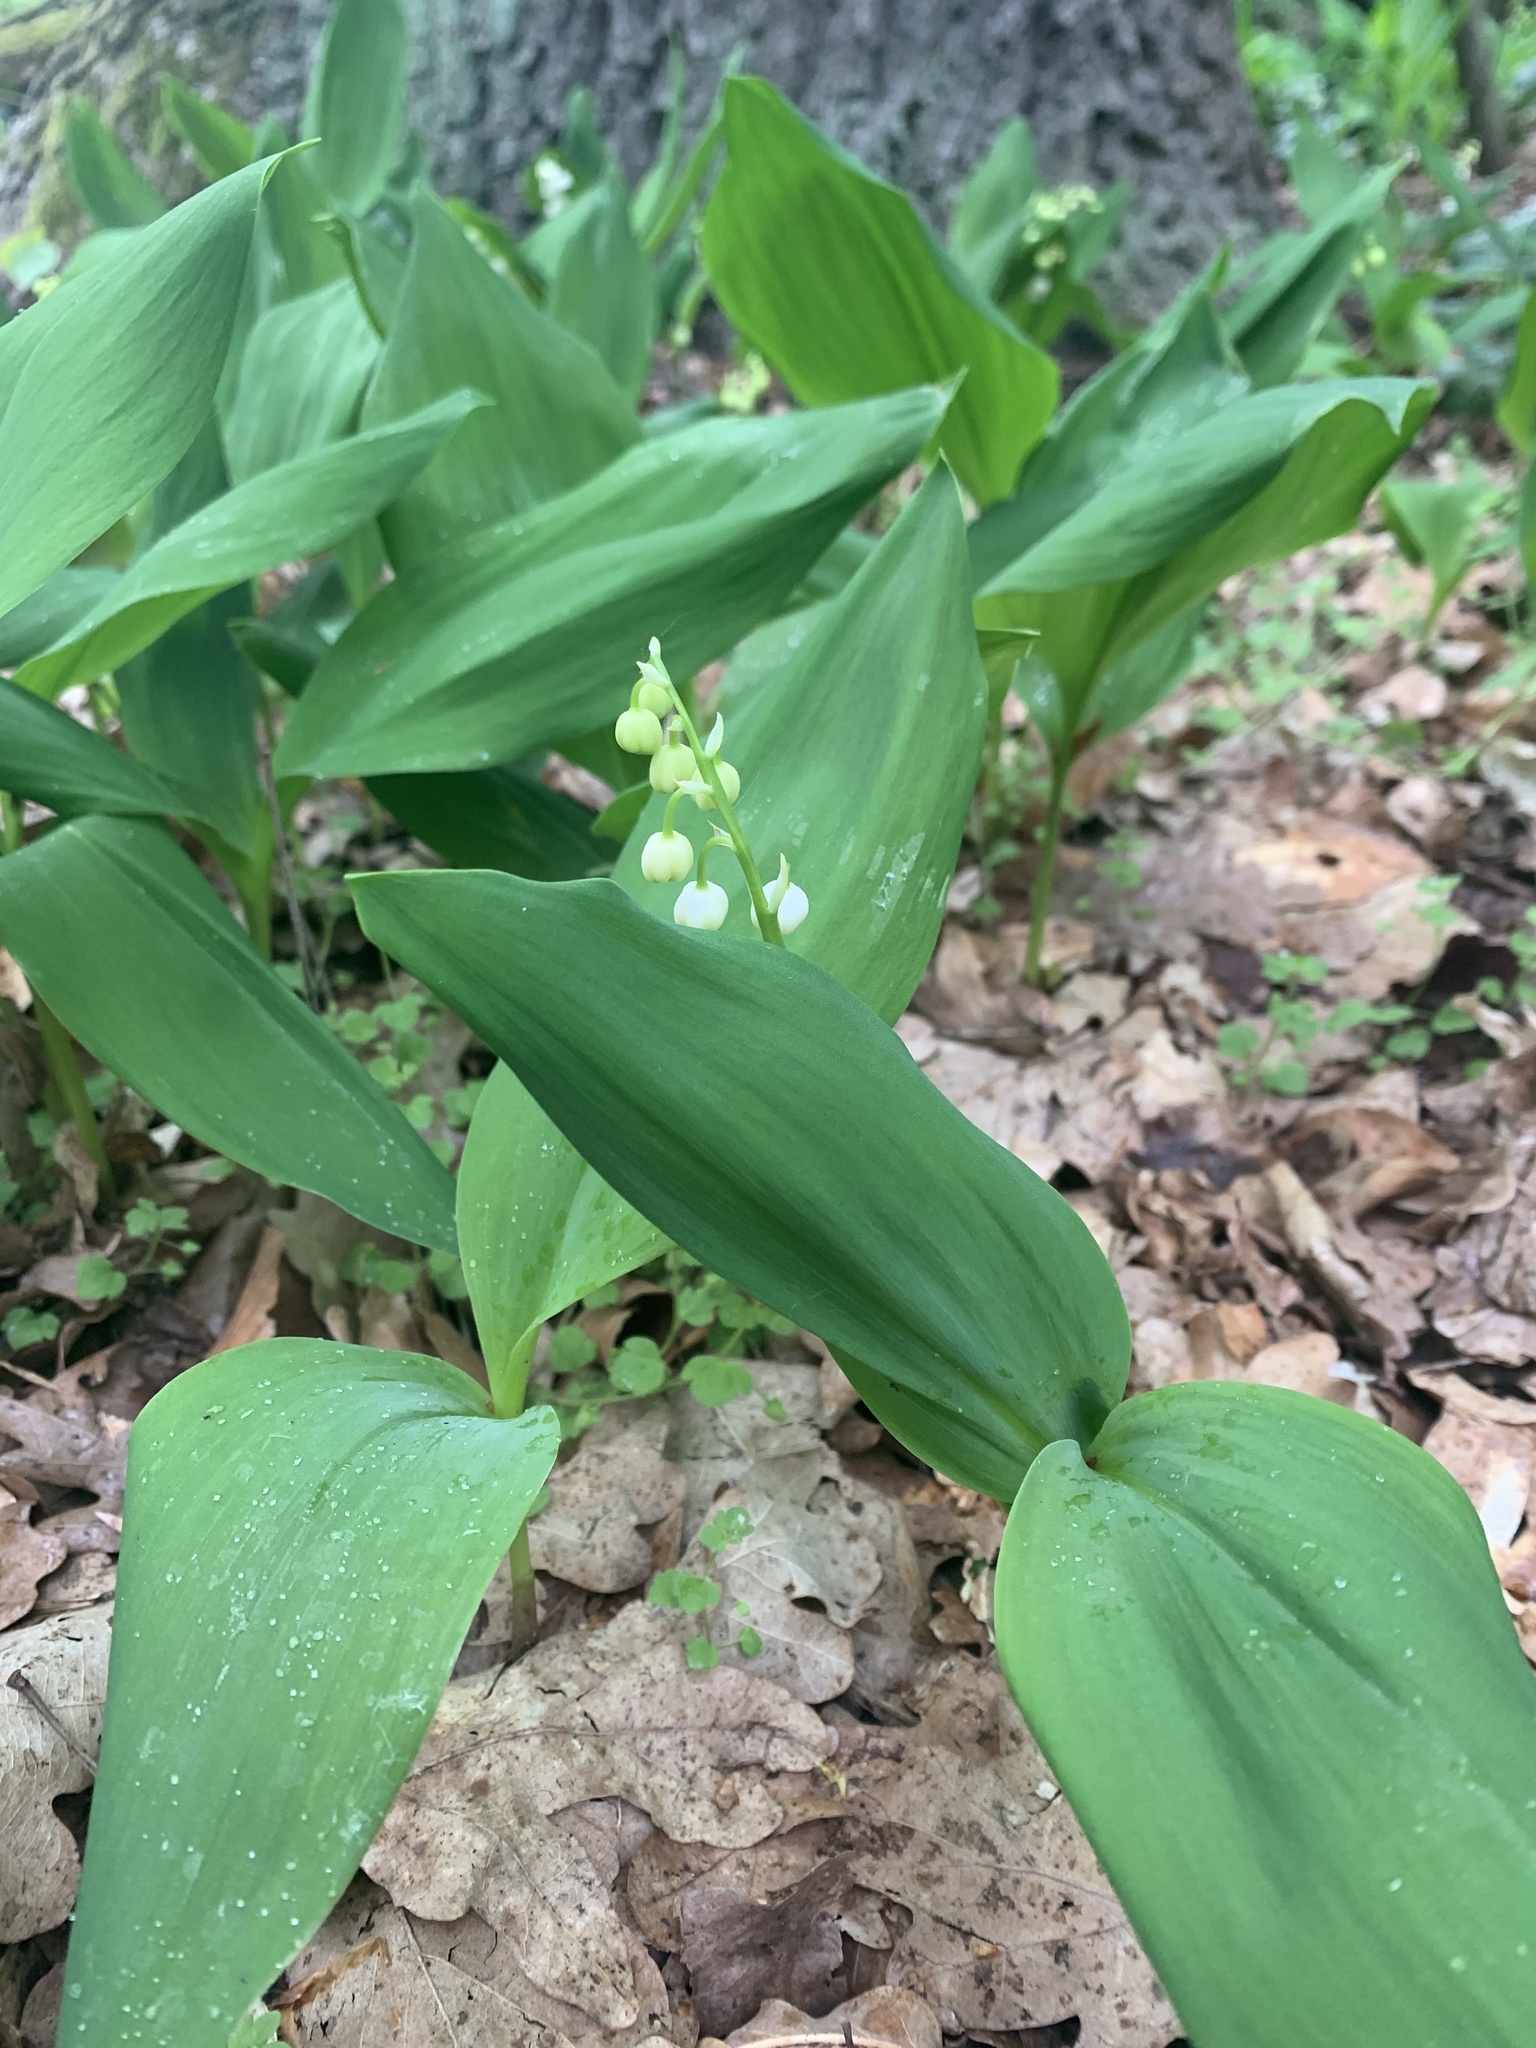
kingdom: Plantae
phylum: Tracheophyta
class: Liliopsida
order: Asparagales
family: Asparagaceae
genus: Convallaria
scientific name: Convallaria majalis
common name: Lily-of-the-valley
